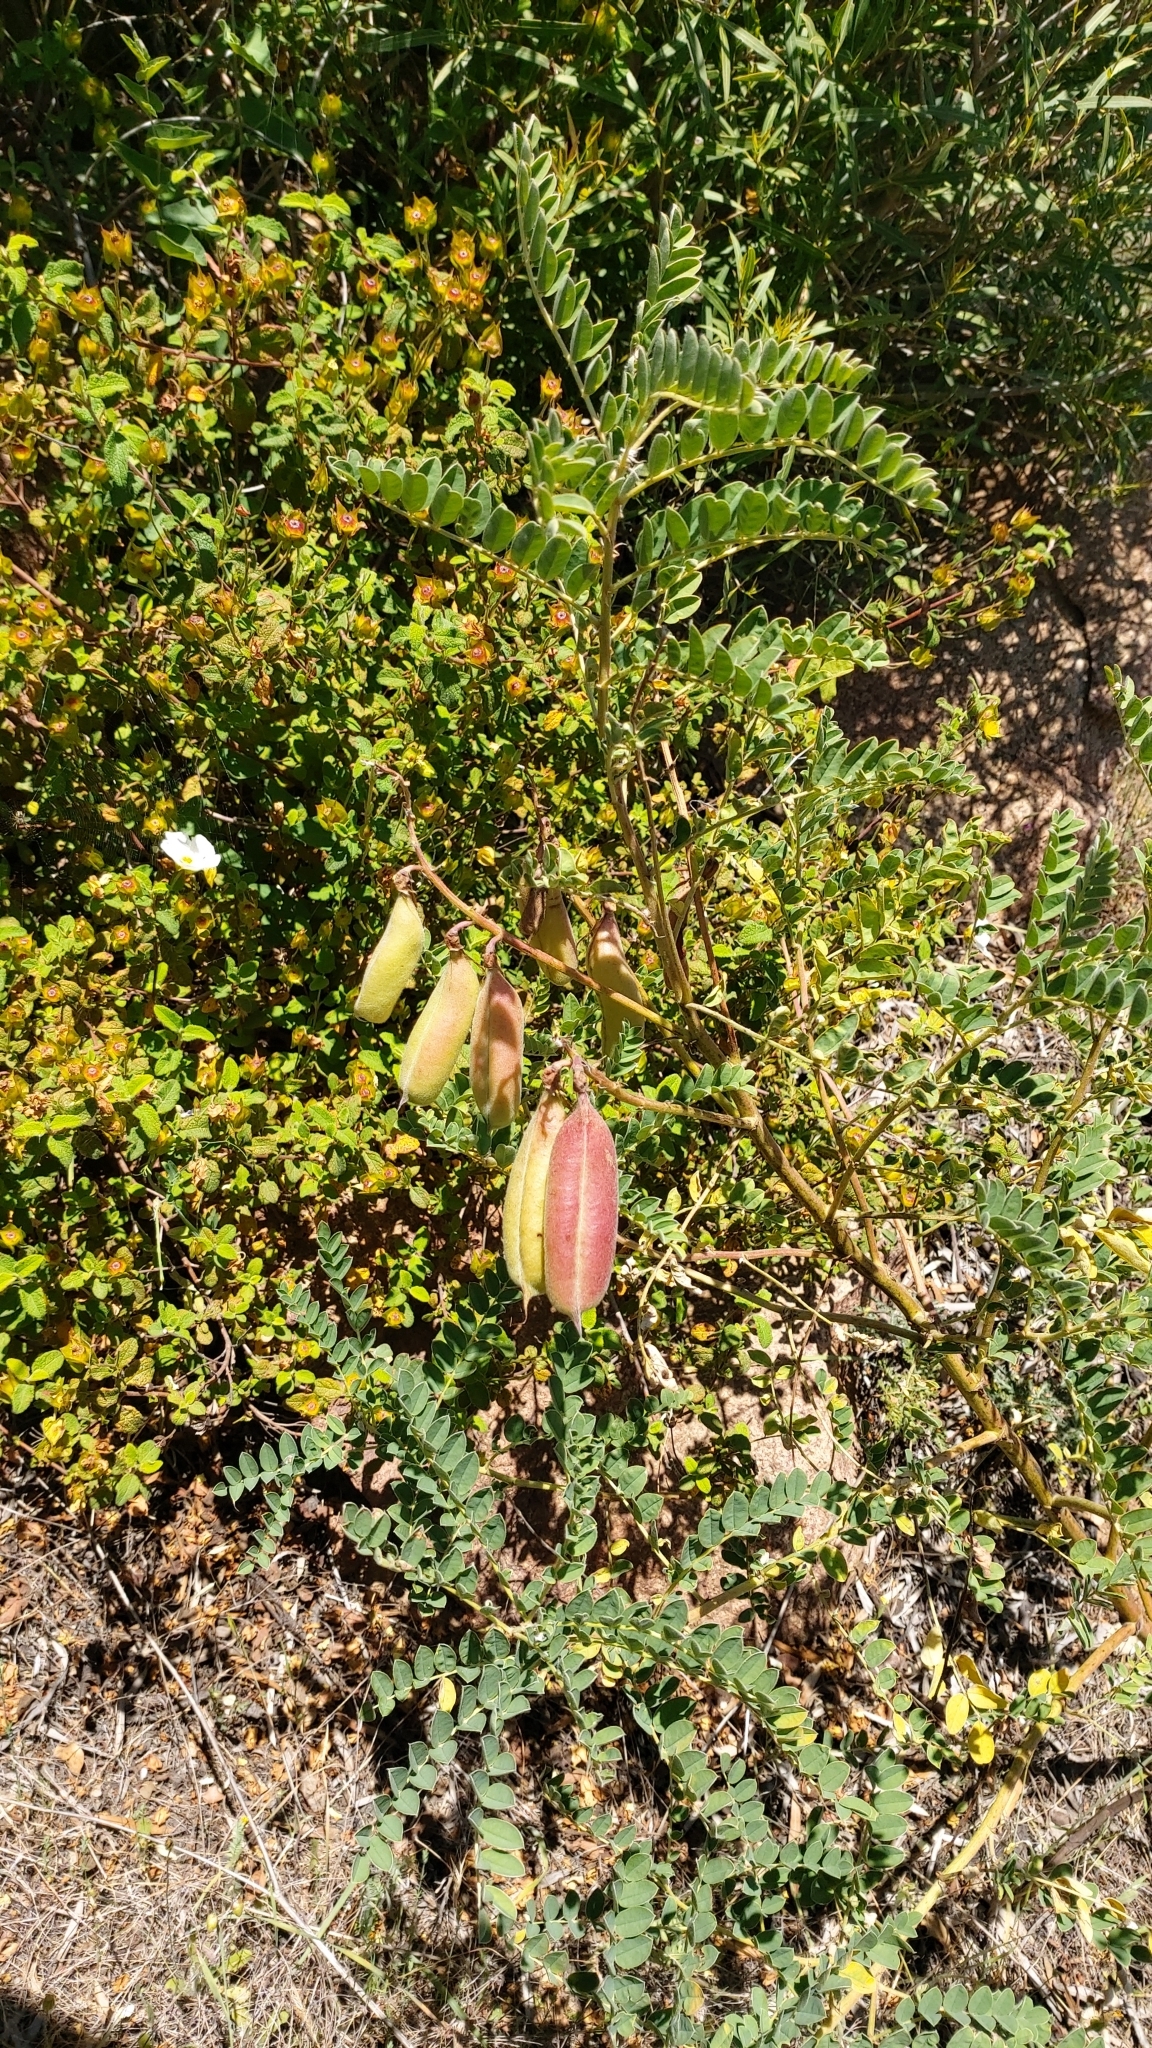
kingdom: Plantae
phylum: Tracheophyta
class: Magnoliopsida
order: Fabales
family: Fabaceae
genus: Erophaca
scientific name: Erophaca baetica
